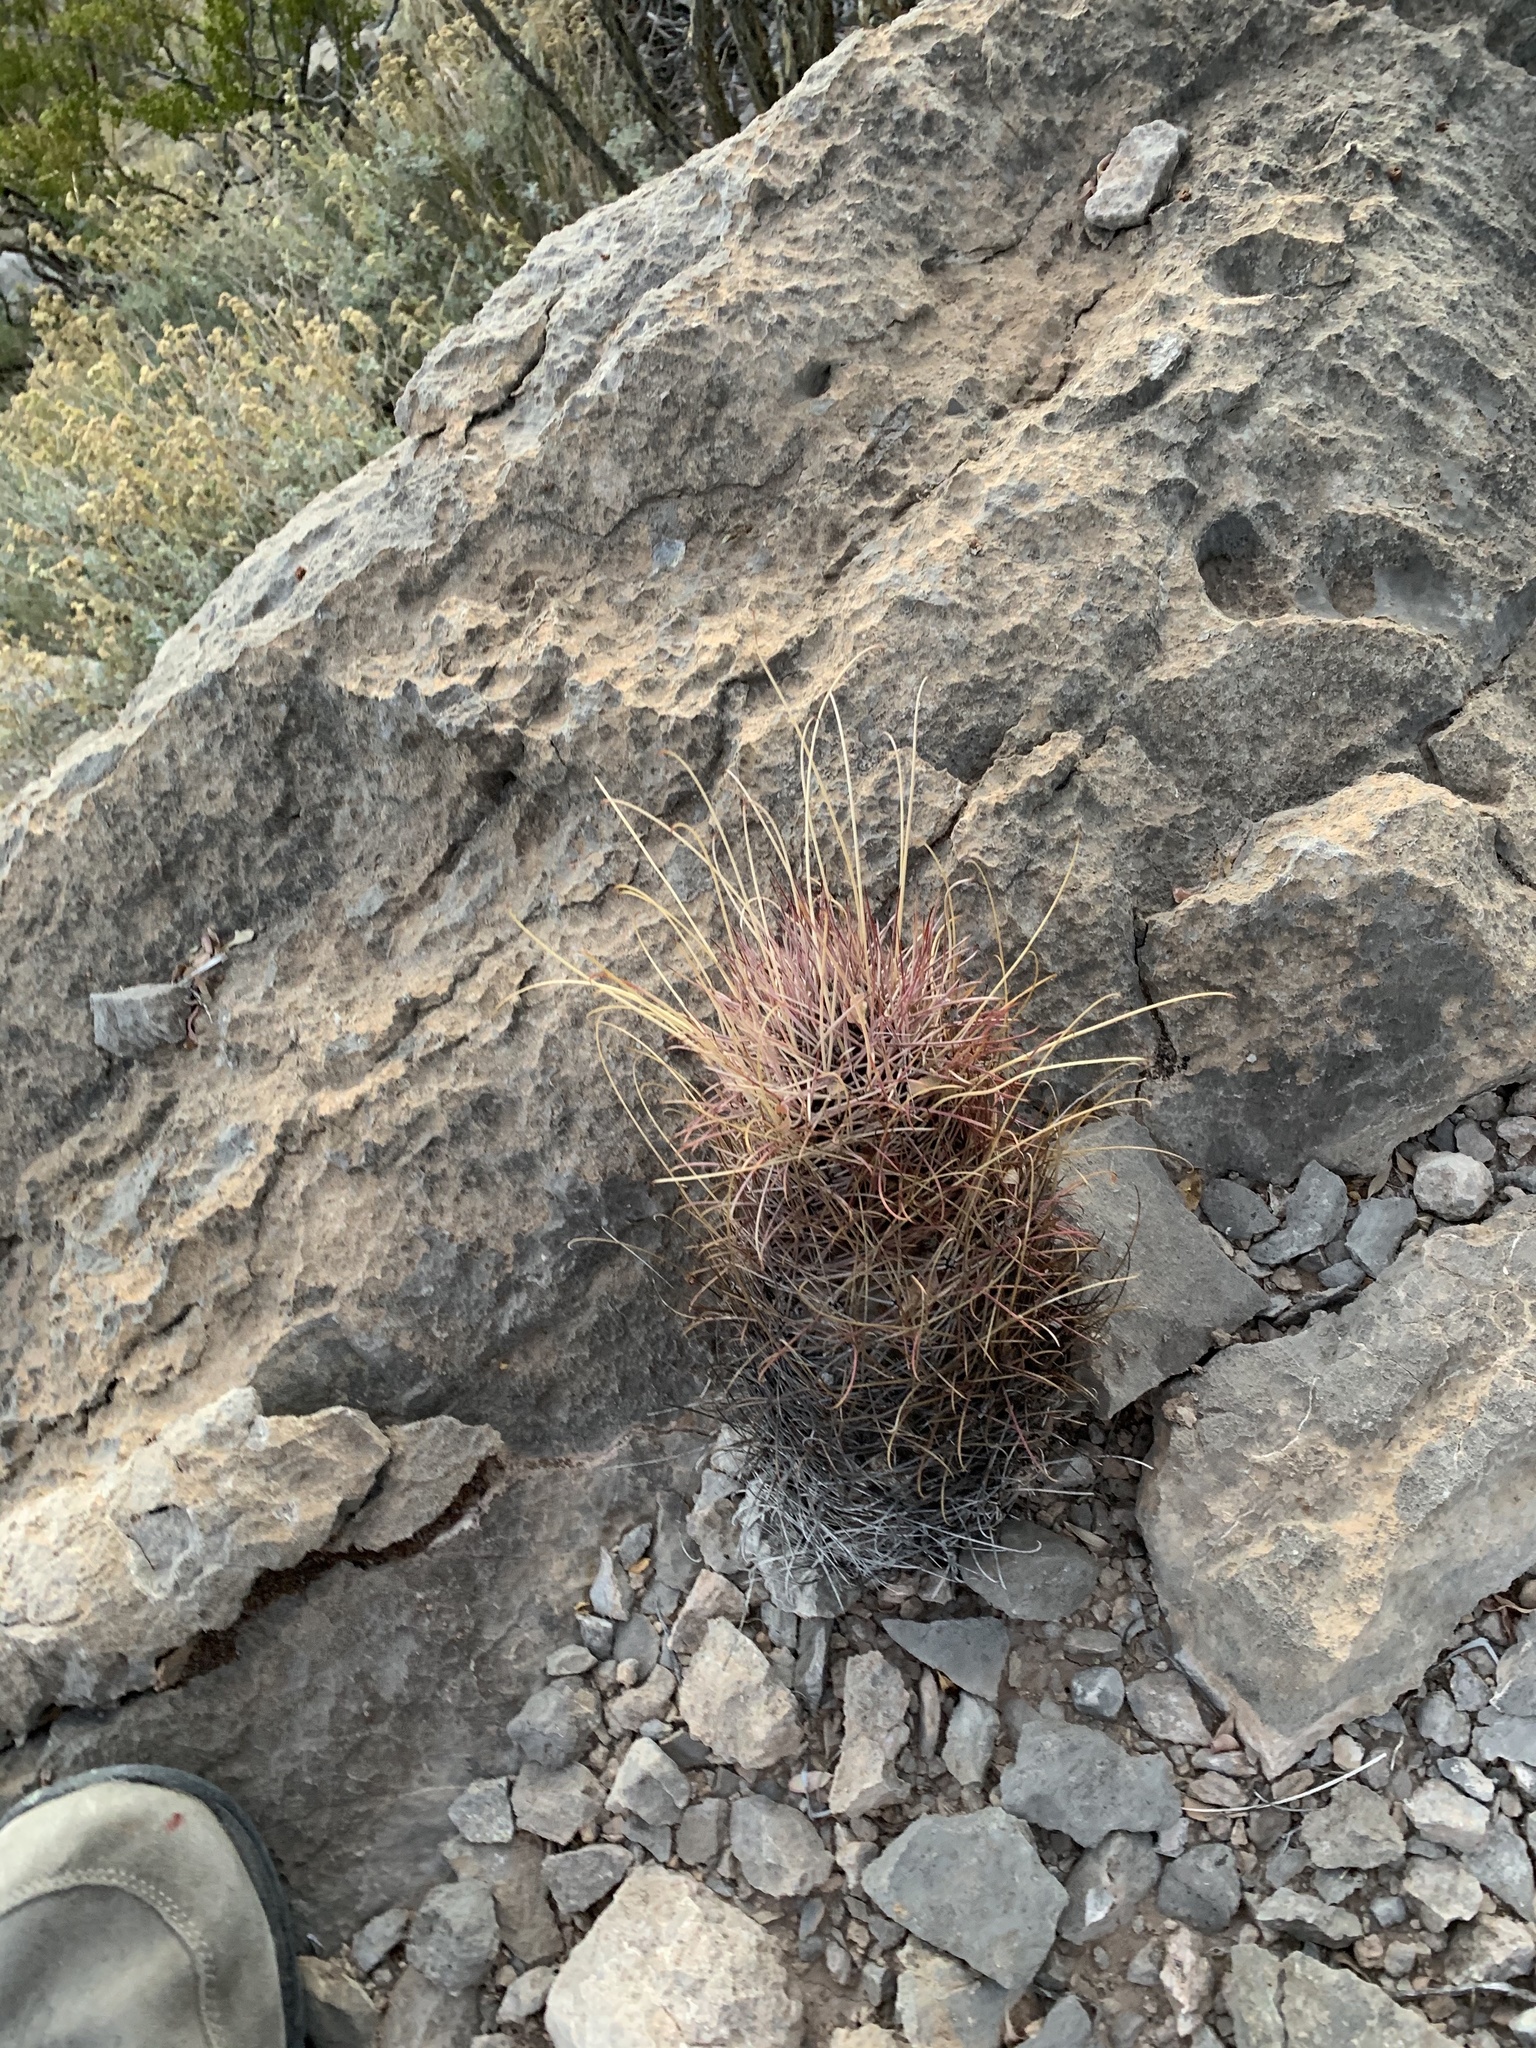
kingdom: Plantae
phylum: Tracheophyta
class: Magnoliopsida
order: Caryophyllales
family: Cactaceae
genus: Ferocactus
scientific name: Ferocactus uncinatus
